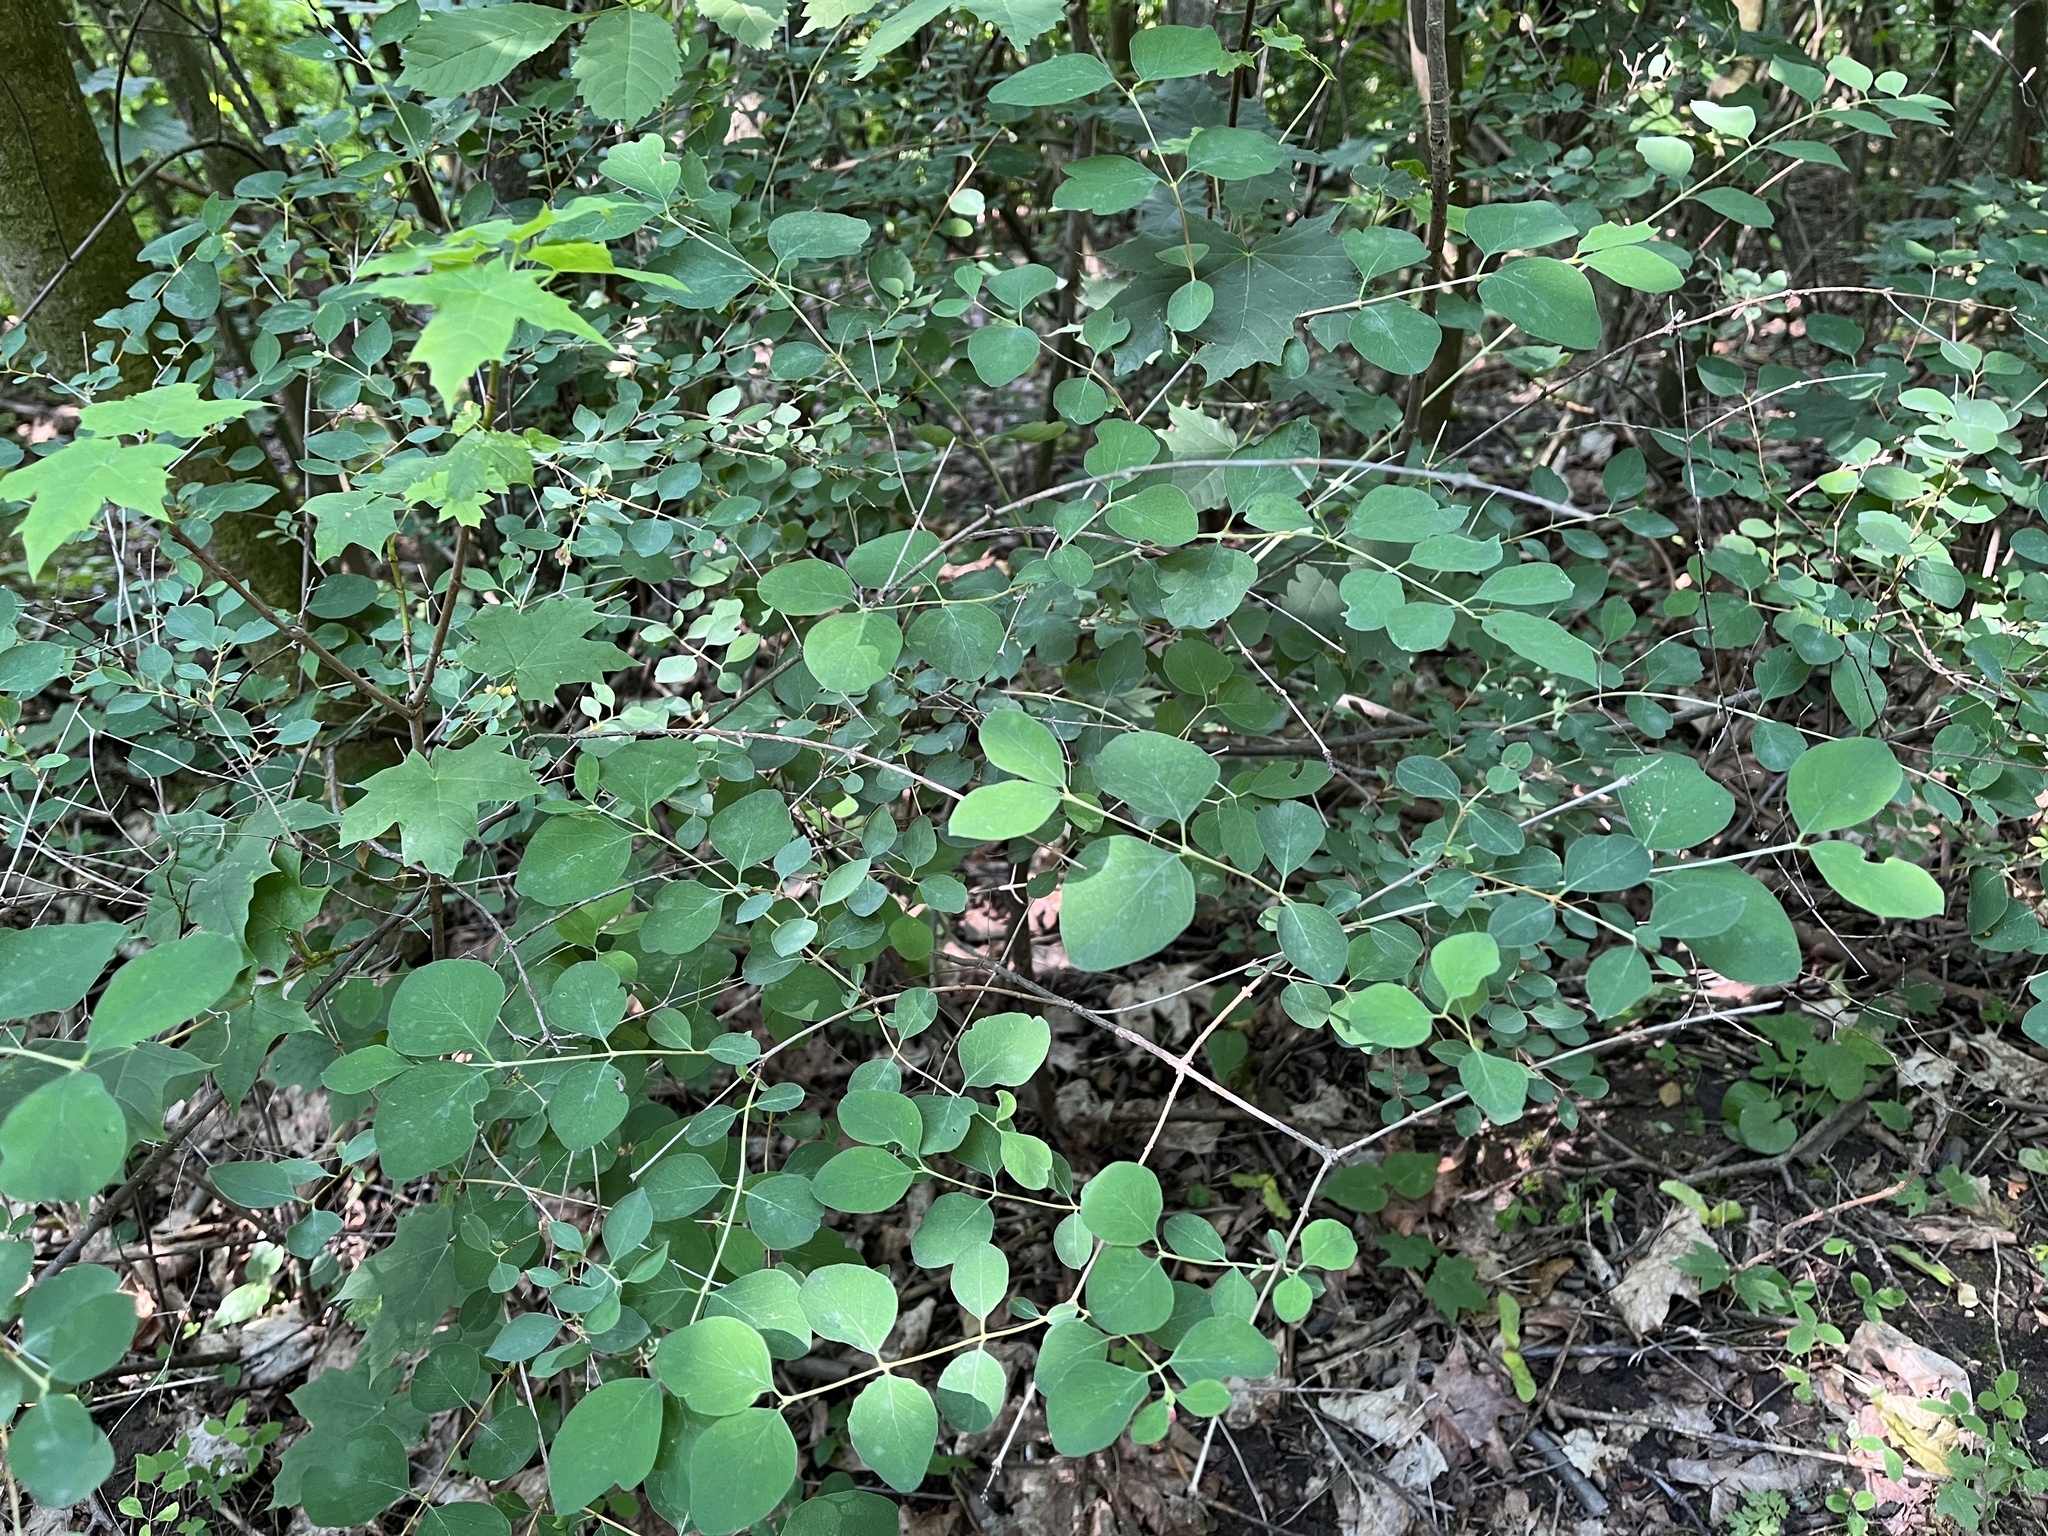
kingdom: Plantae
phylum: Tracheophyta
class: Magnoliopsida
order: Dipsacales
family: Caprifoliaceae
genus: Symphoricarpos
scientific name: Symphoricarpos albus
